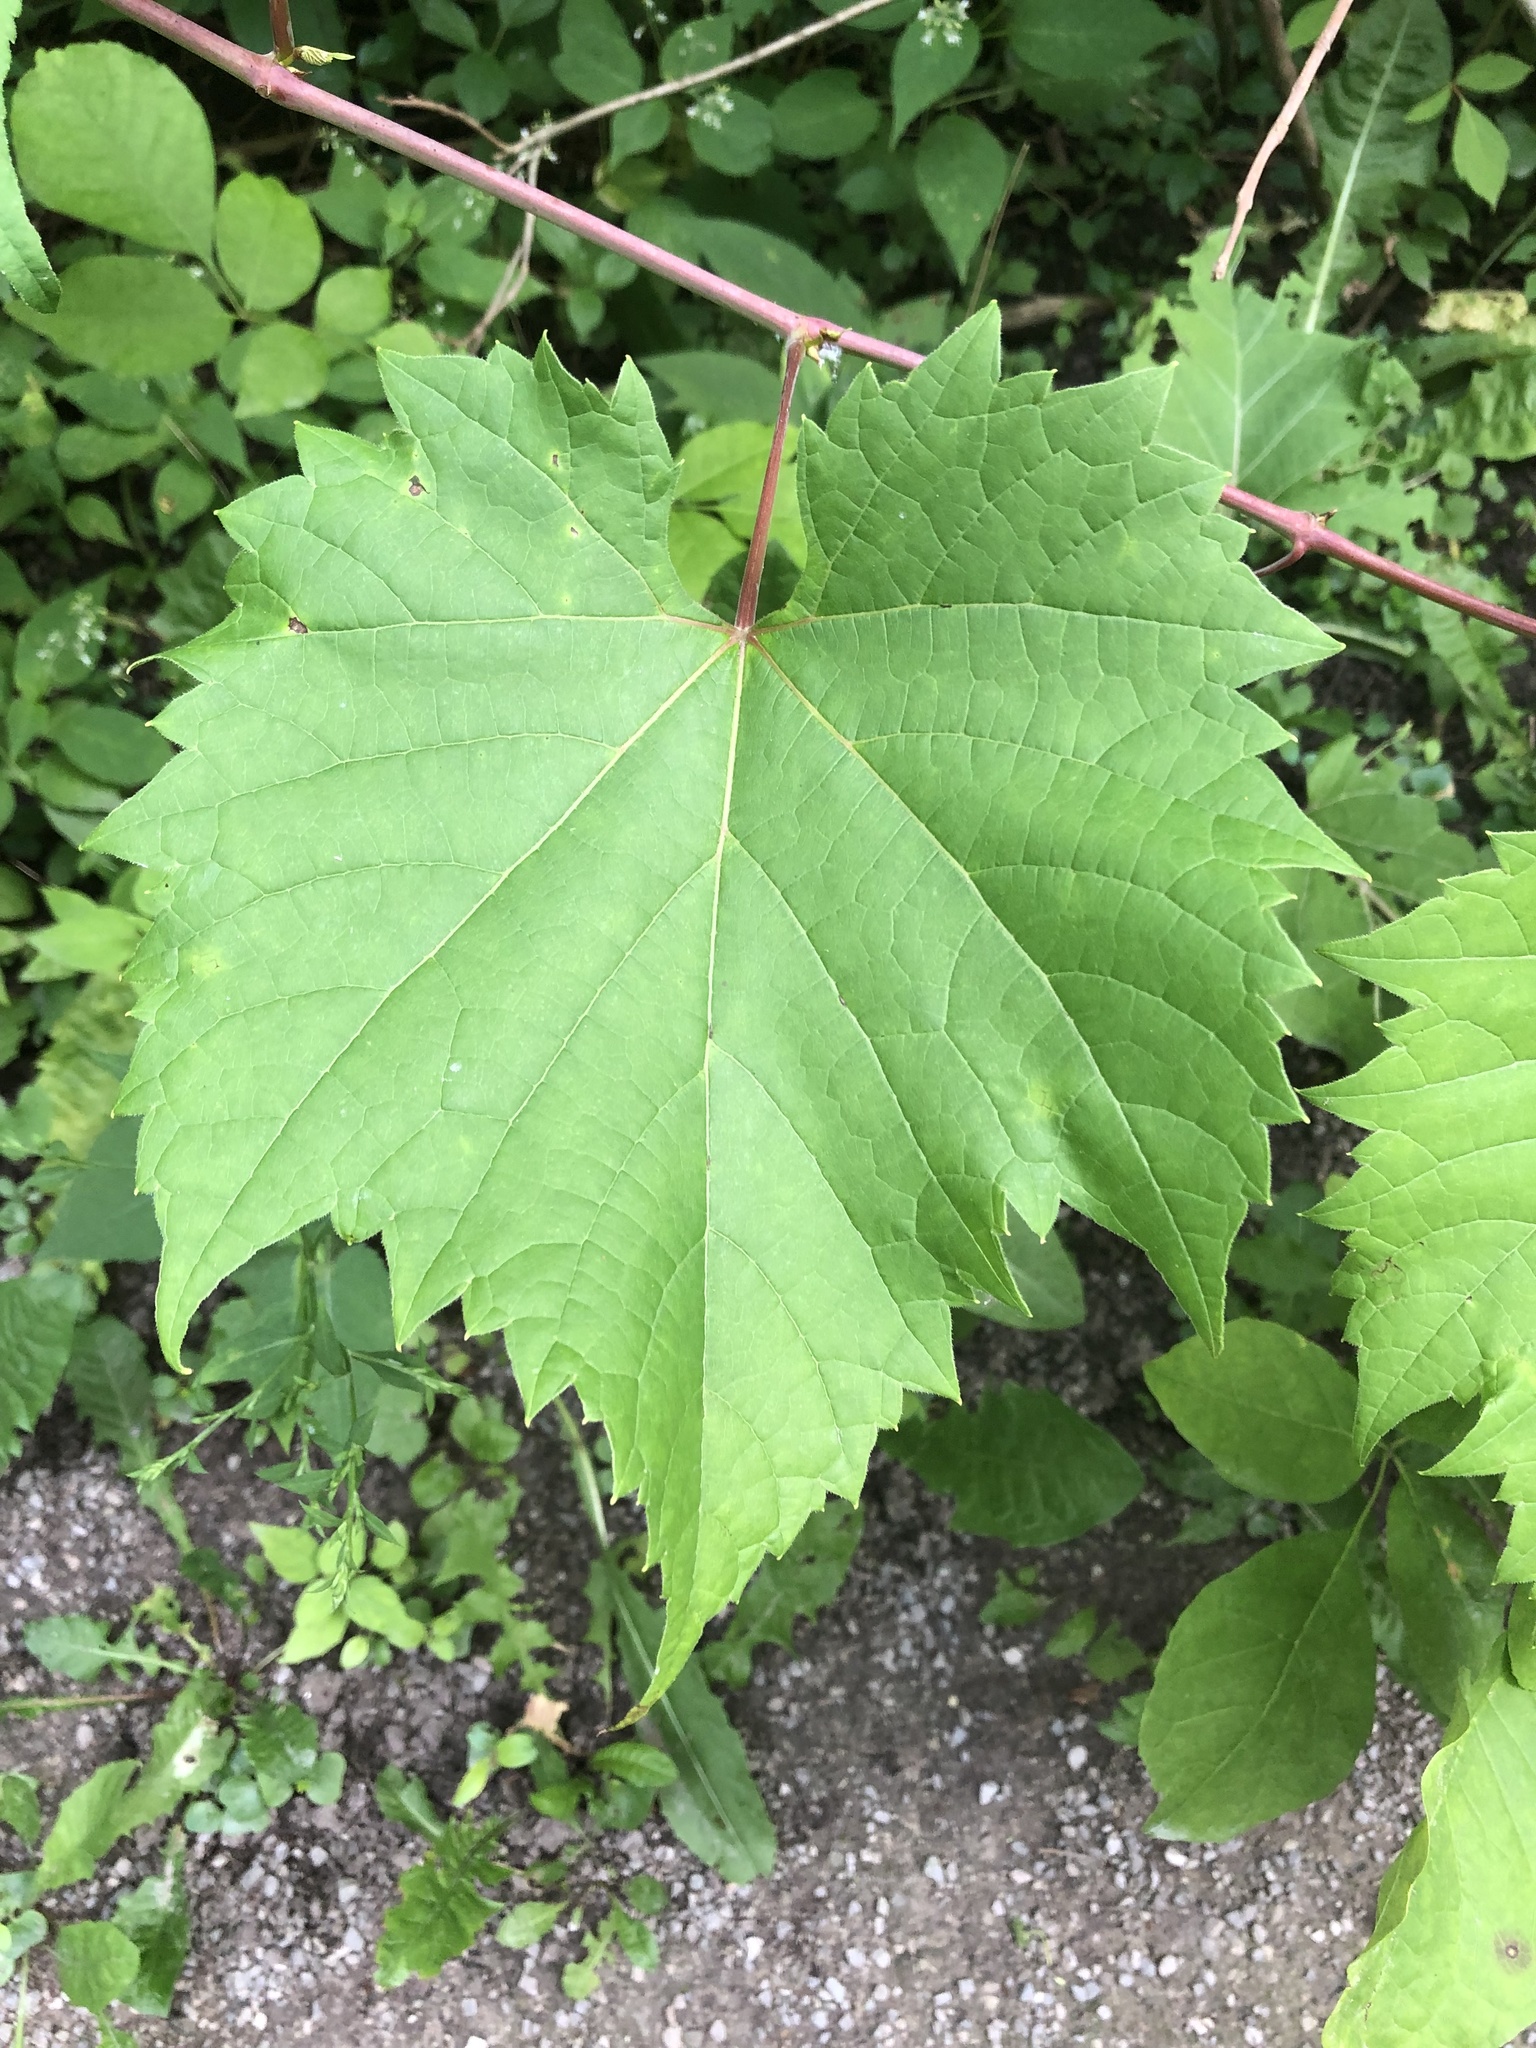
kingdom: Plantae
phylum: Tracheophyta
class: Magnoliopsida
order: Vitales
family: Vitaceae
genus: Vitis
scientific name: Vitis riparia
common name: Frost grape
